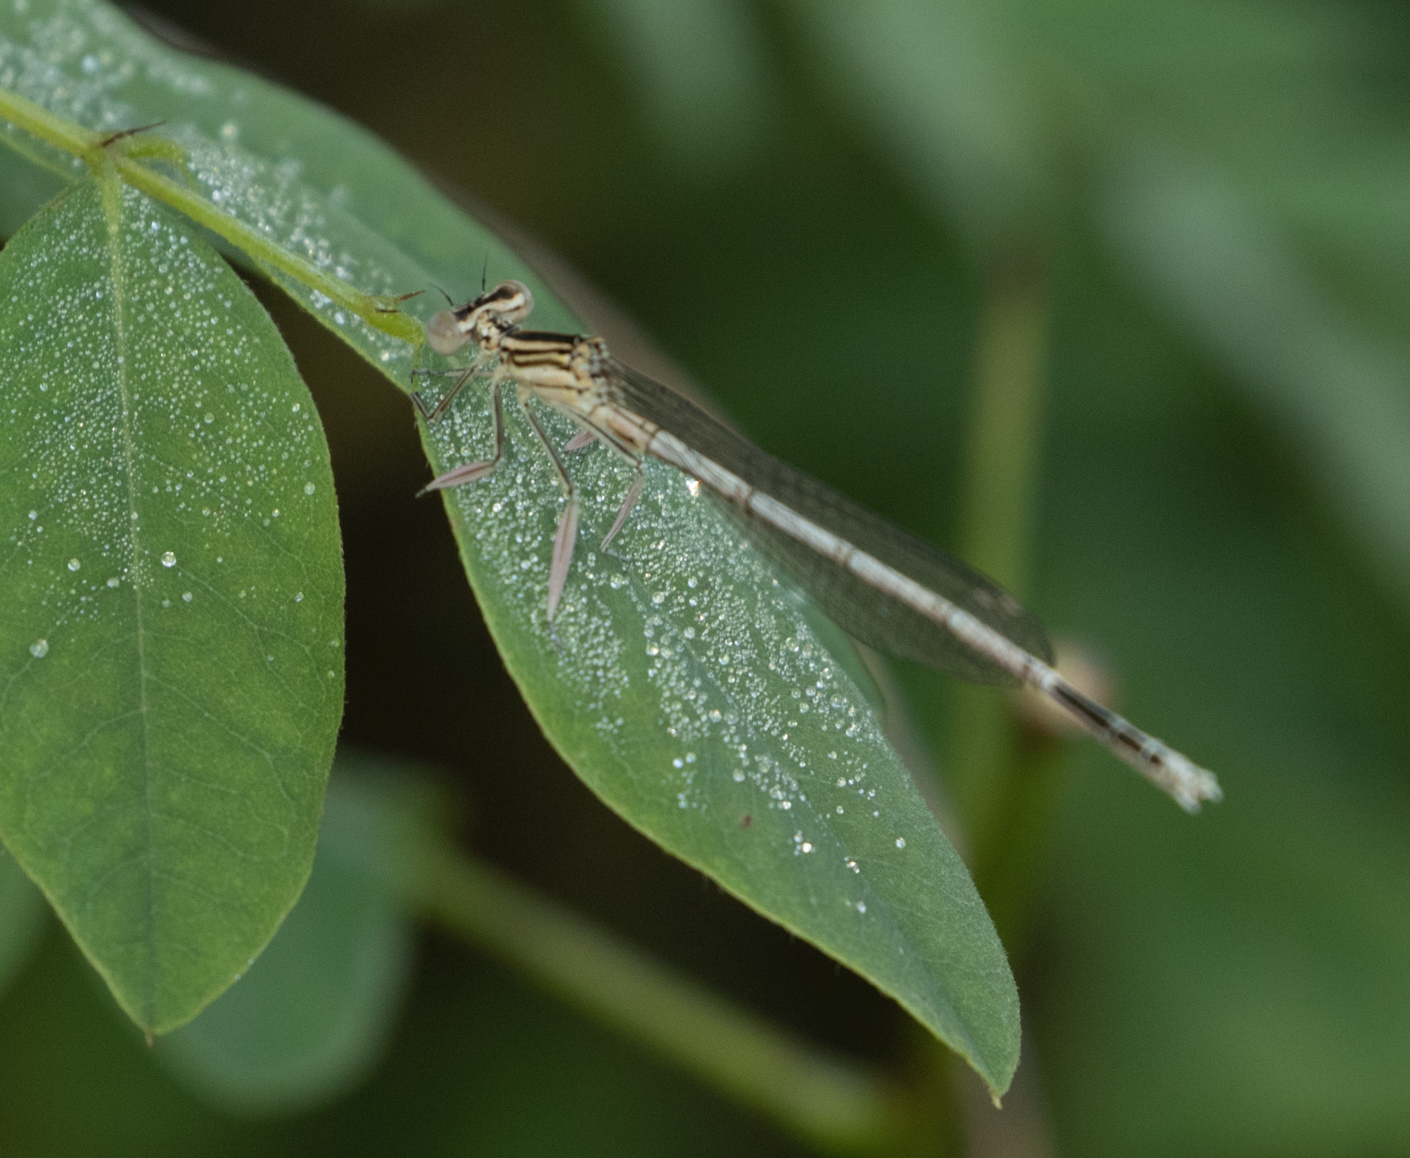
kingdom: Animalia
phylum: Arthropoda
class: Insecta
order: Odonata
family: Platycnemididae
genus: Platycnemis
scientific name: Platycnemis pennipes
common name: White-legged damselfly
